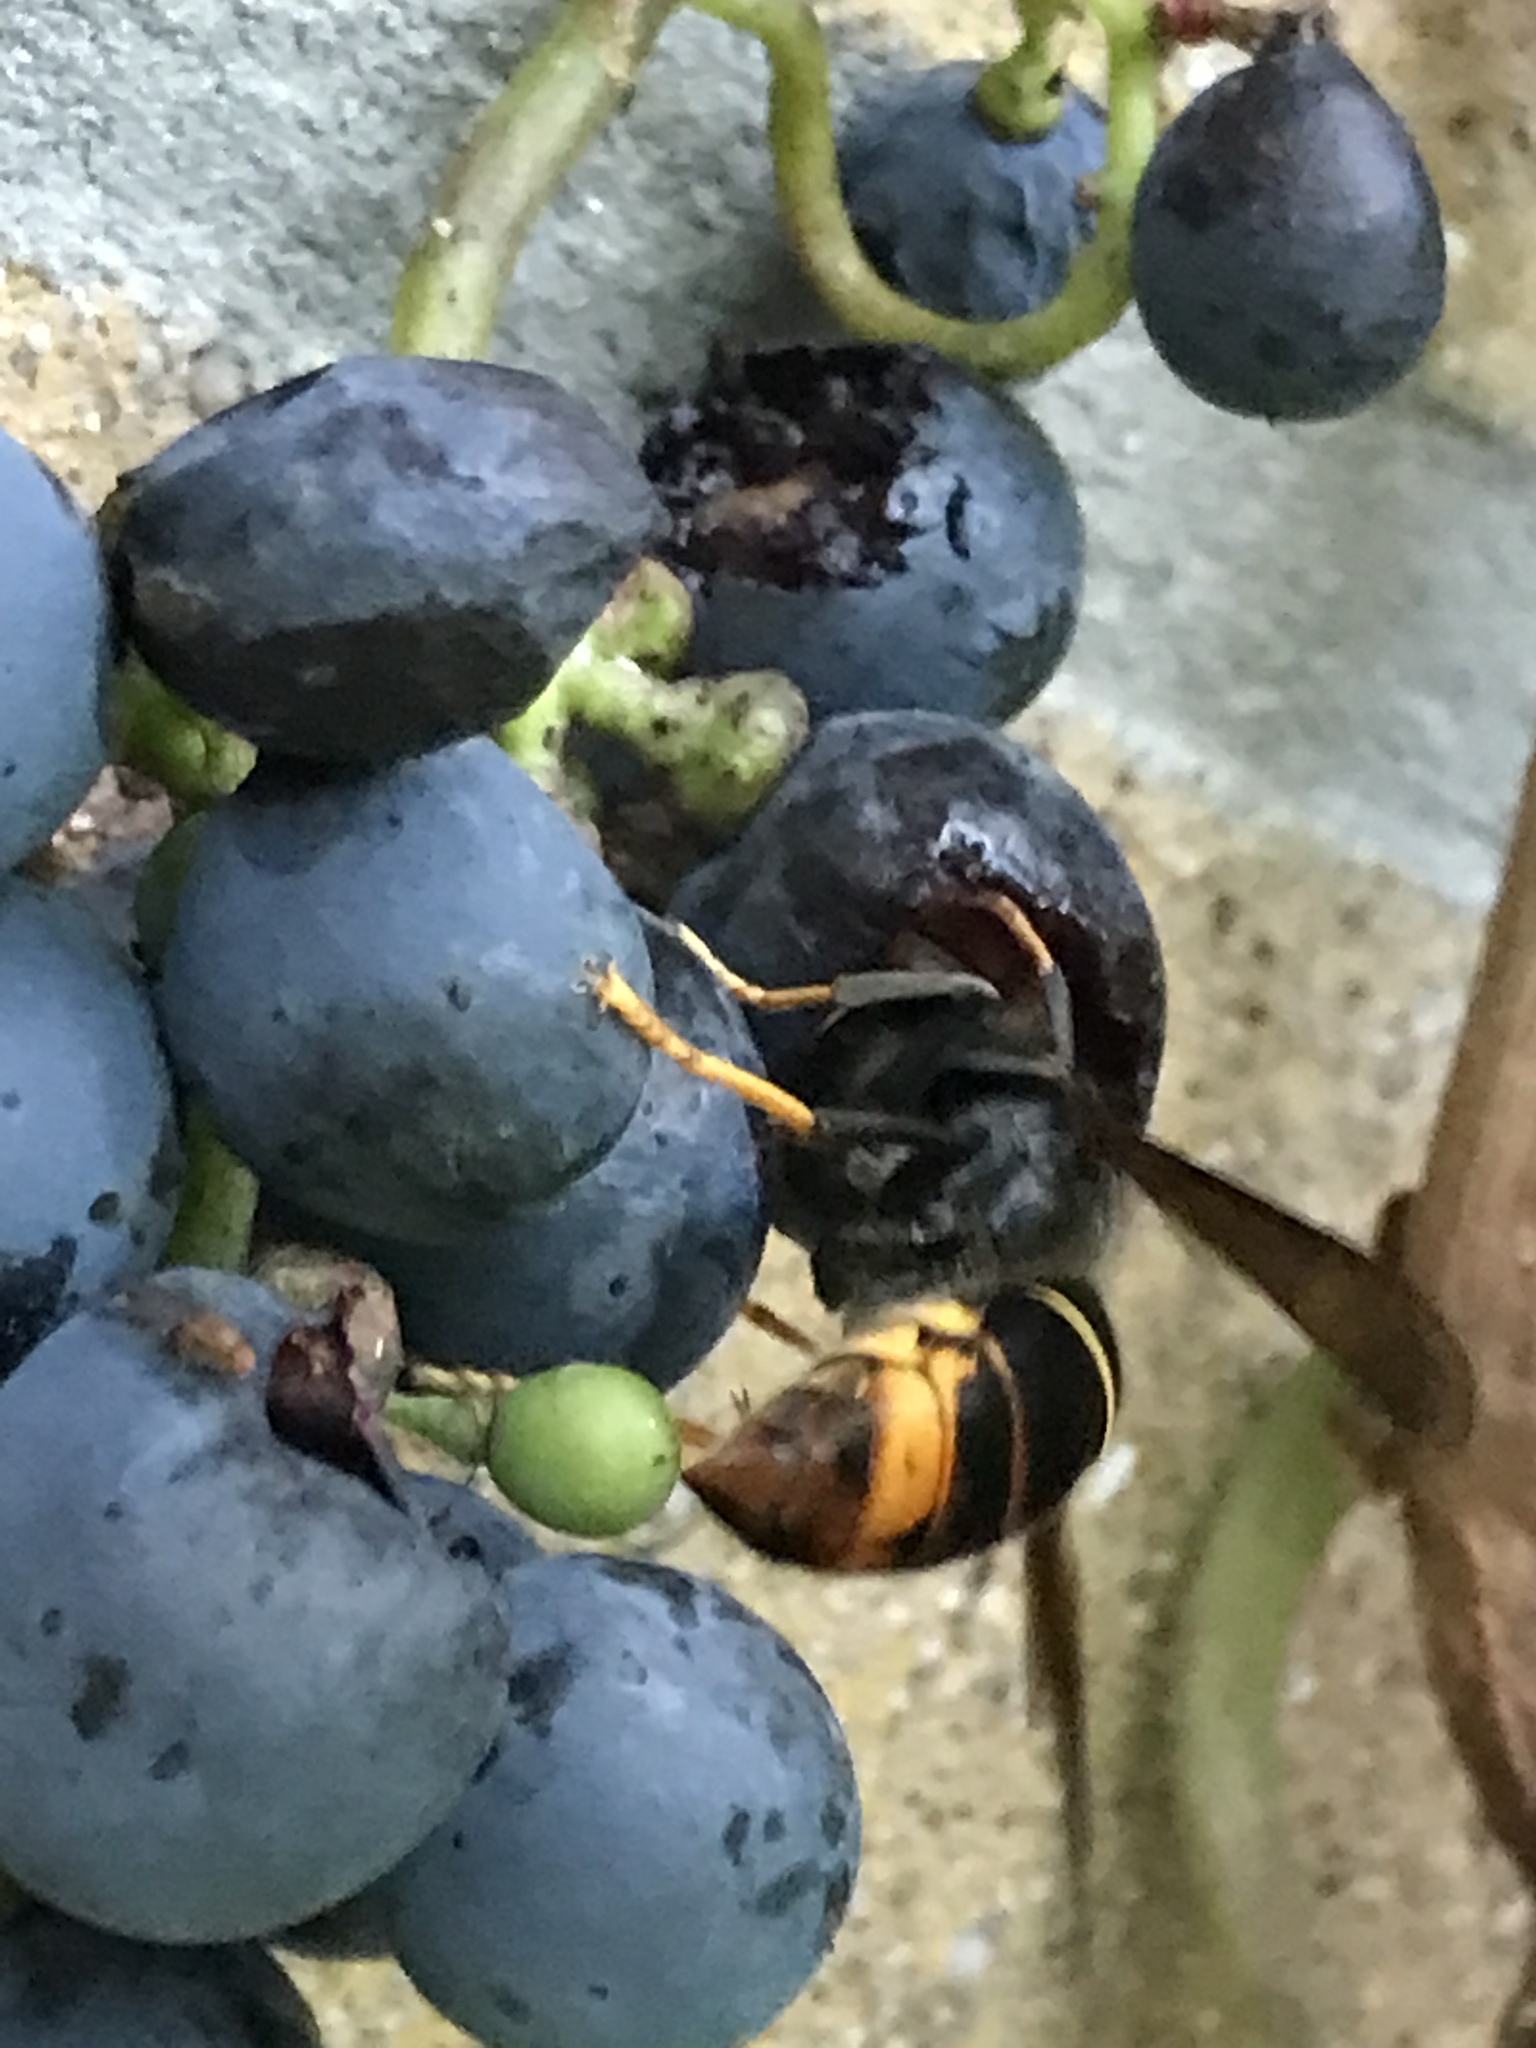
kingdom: Animalia
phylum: Arthropoda
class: Insecta
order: Hymenoptera
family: Vespidae
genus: Vespa
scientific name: Vespa velutina
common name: Asian hornet
